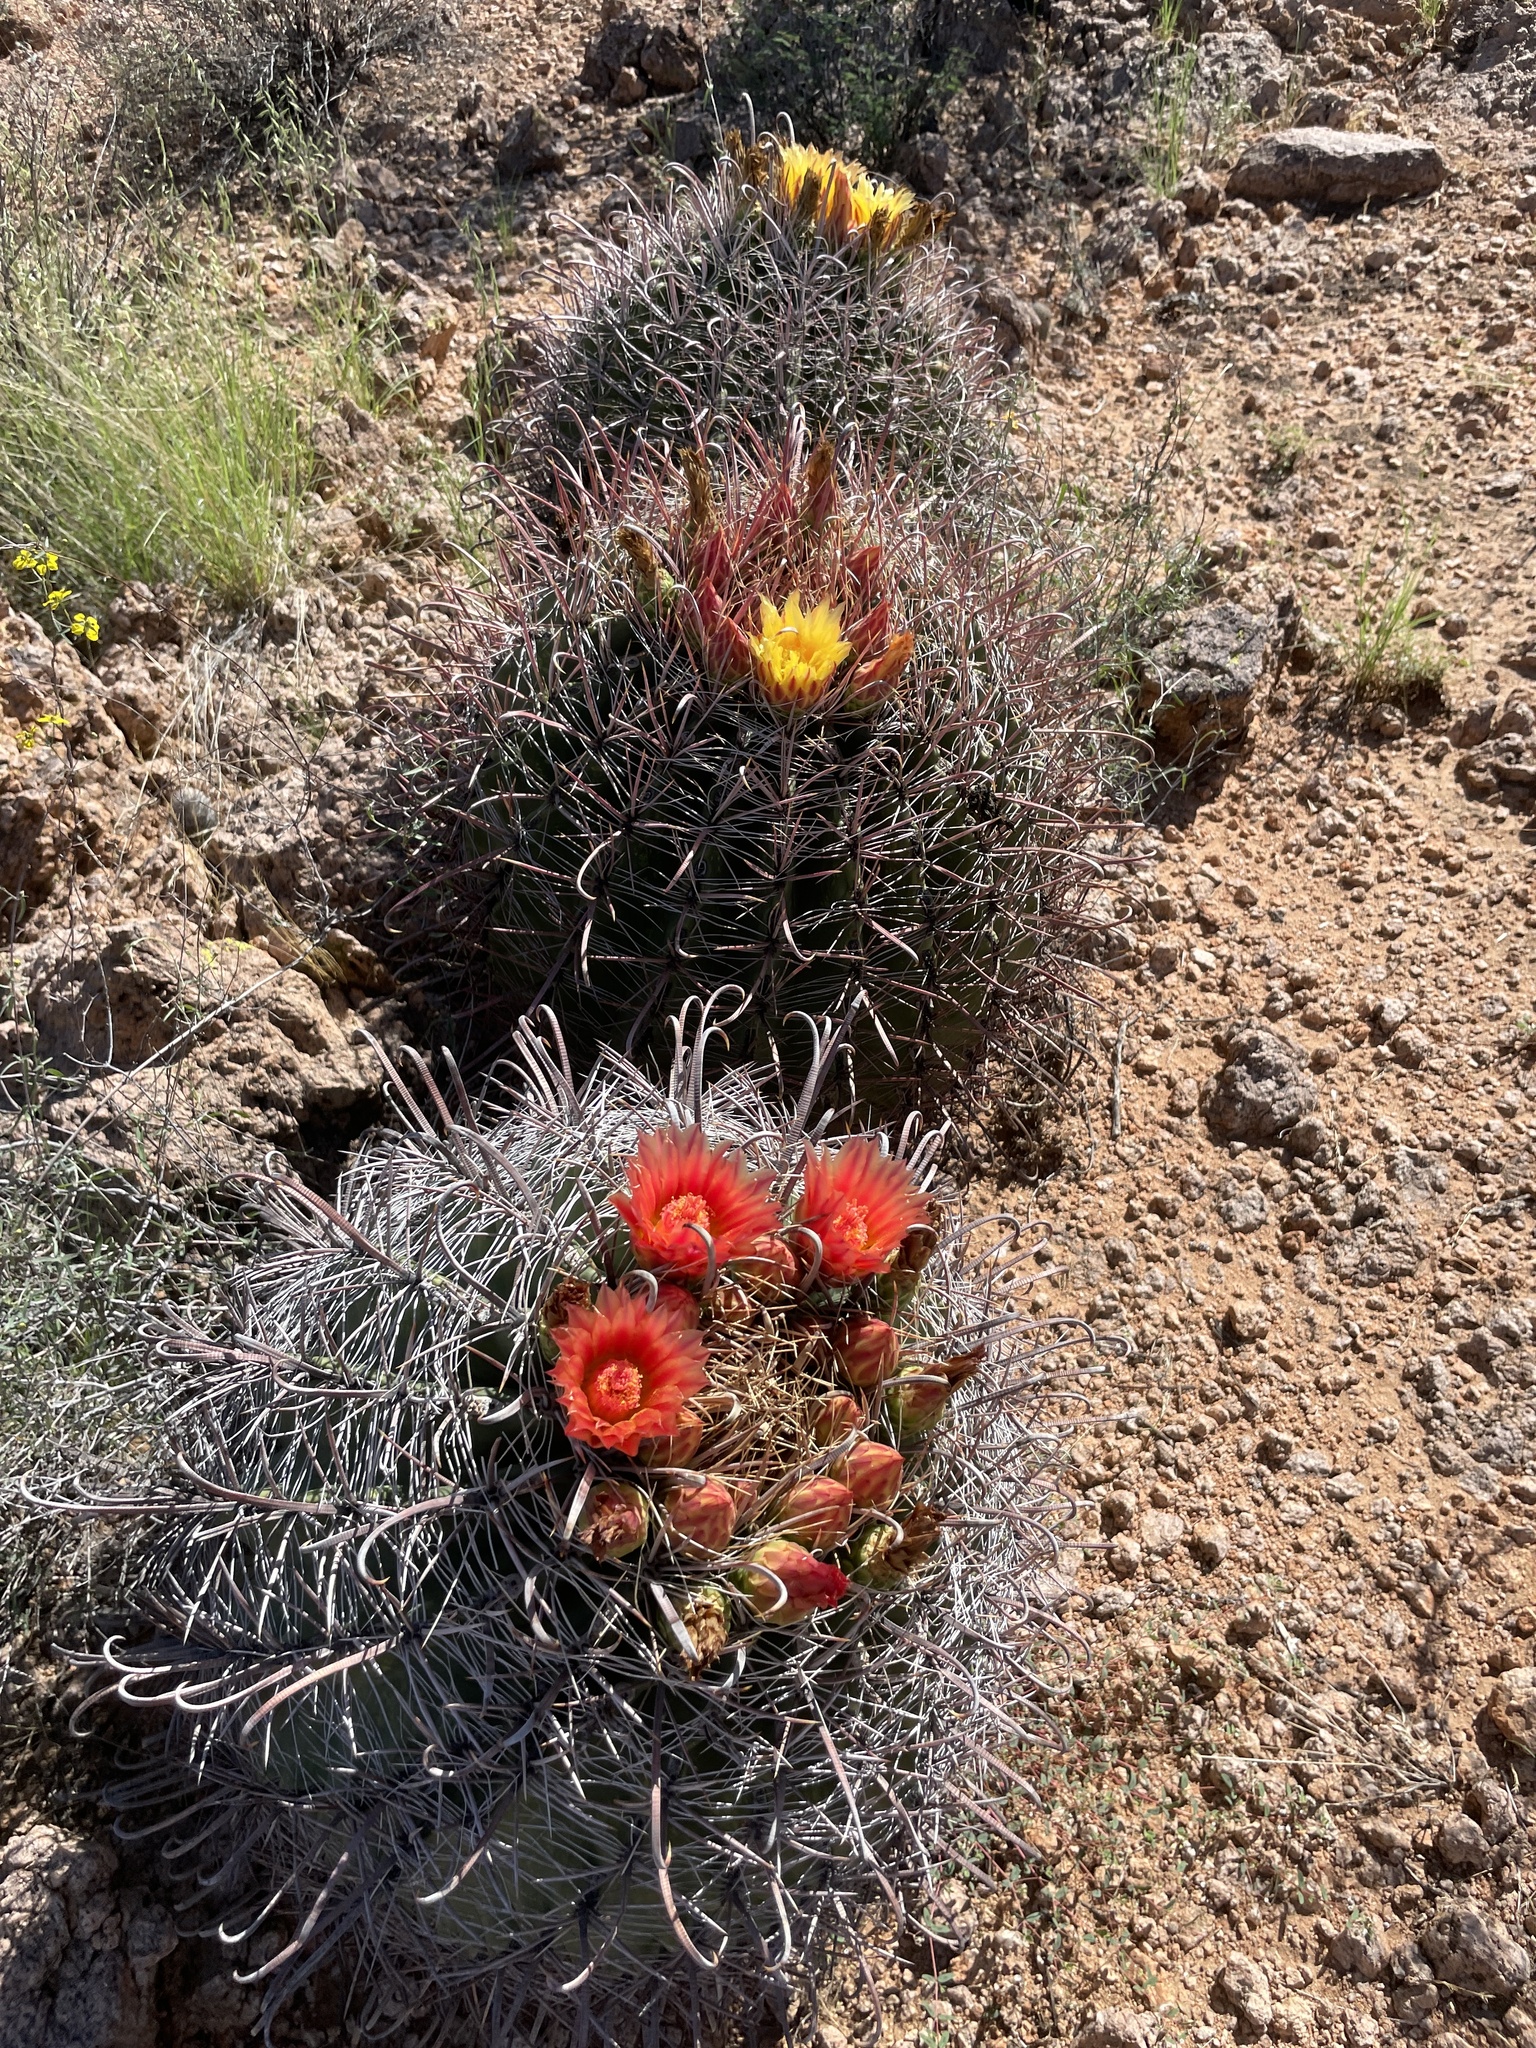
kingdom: Plantae
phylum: Tracheophyta
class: Magnoliopsida
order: Caryophyllales
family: Cactaceae
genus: Ferocactus
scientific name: Ferocactus wislizeni
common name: Candy barrel cactus
